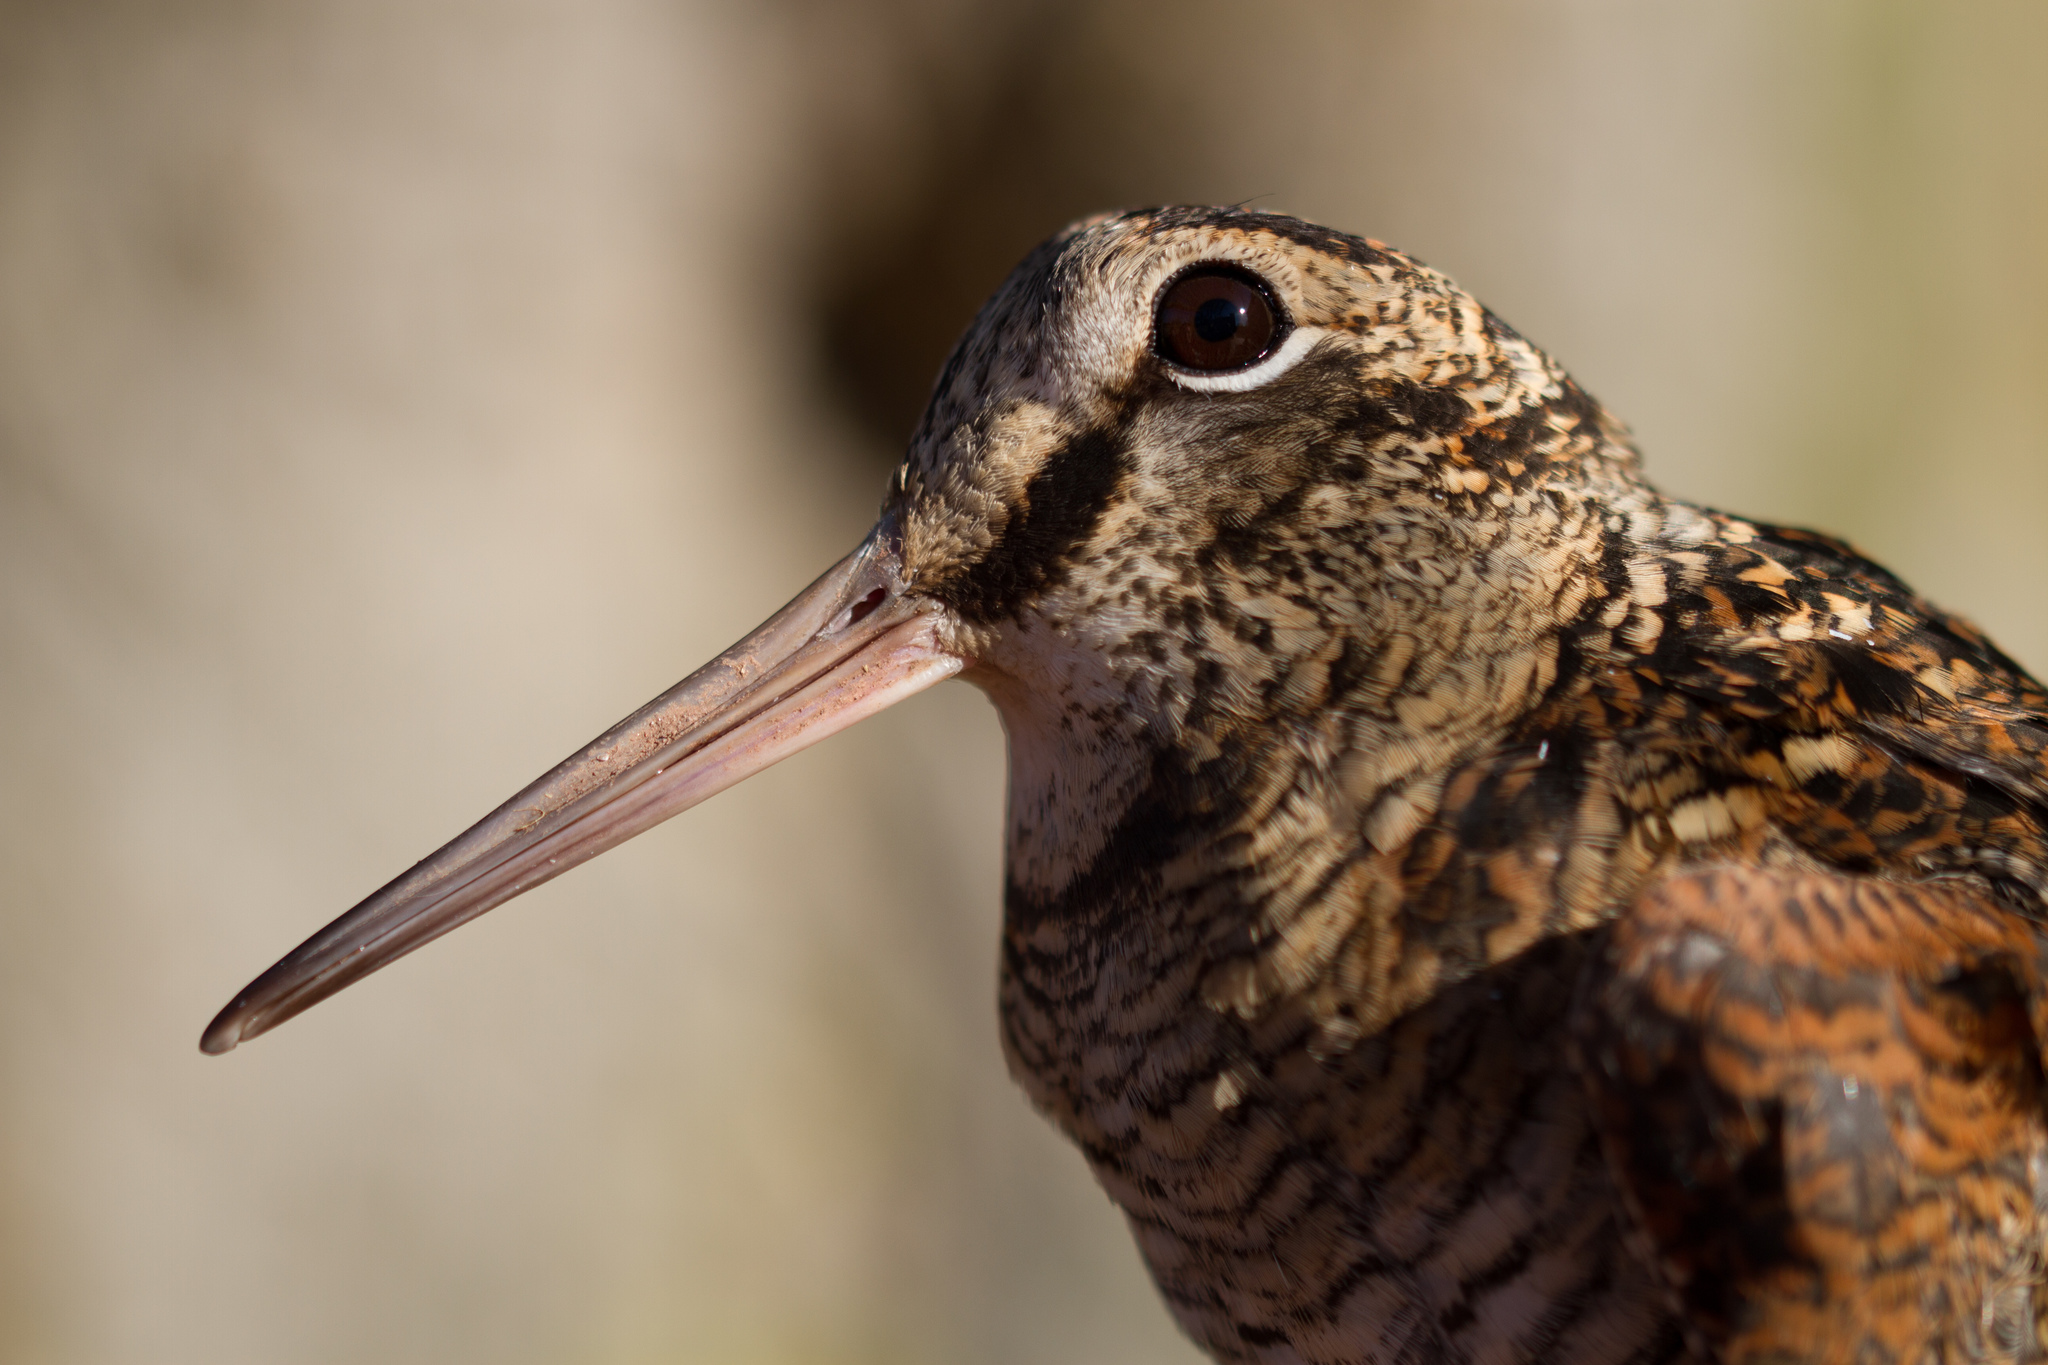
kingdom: Animalia
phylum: Chordata
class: Aves
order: Charadriiformes
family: Scolopacidae
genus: Scolopax
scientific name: Scolopax rusticola
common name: Eurasian woodcock
